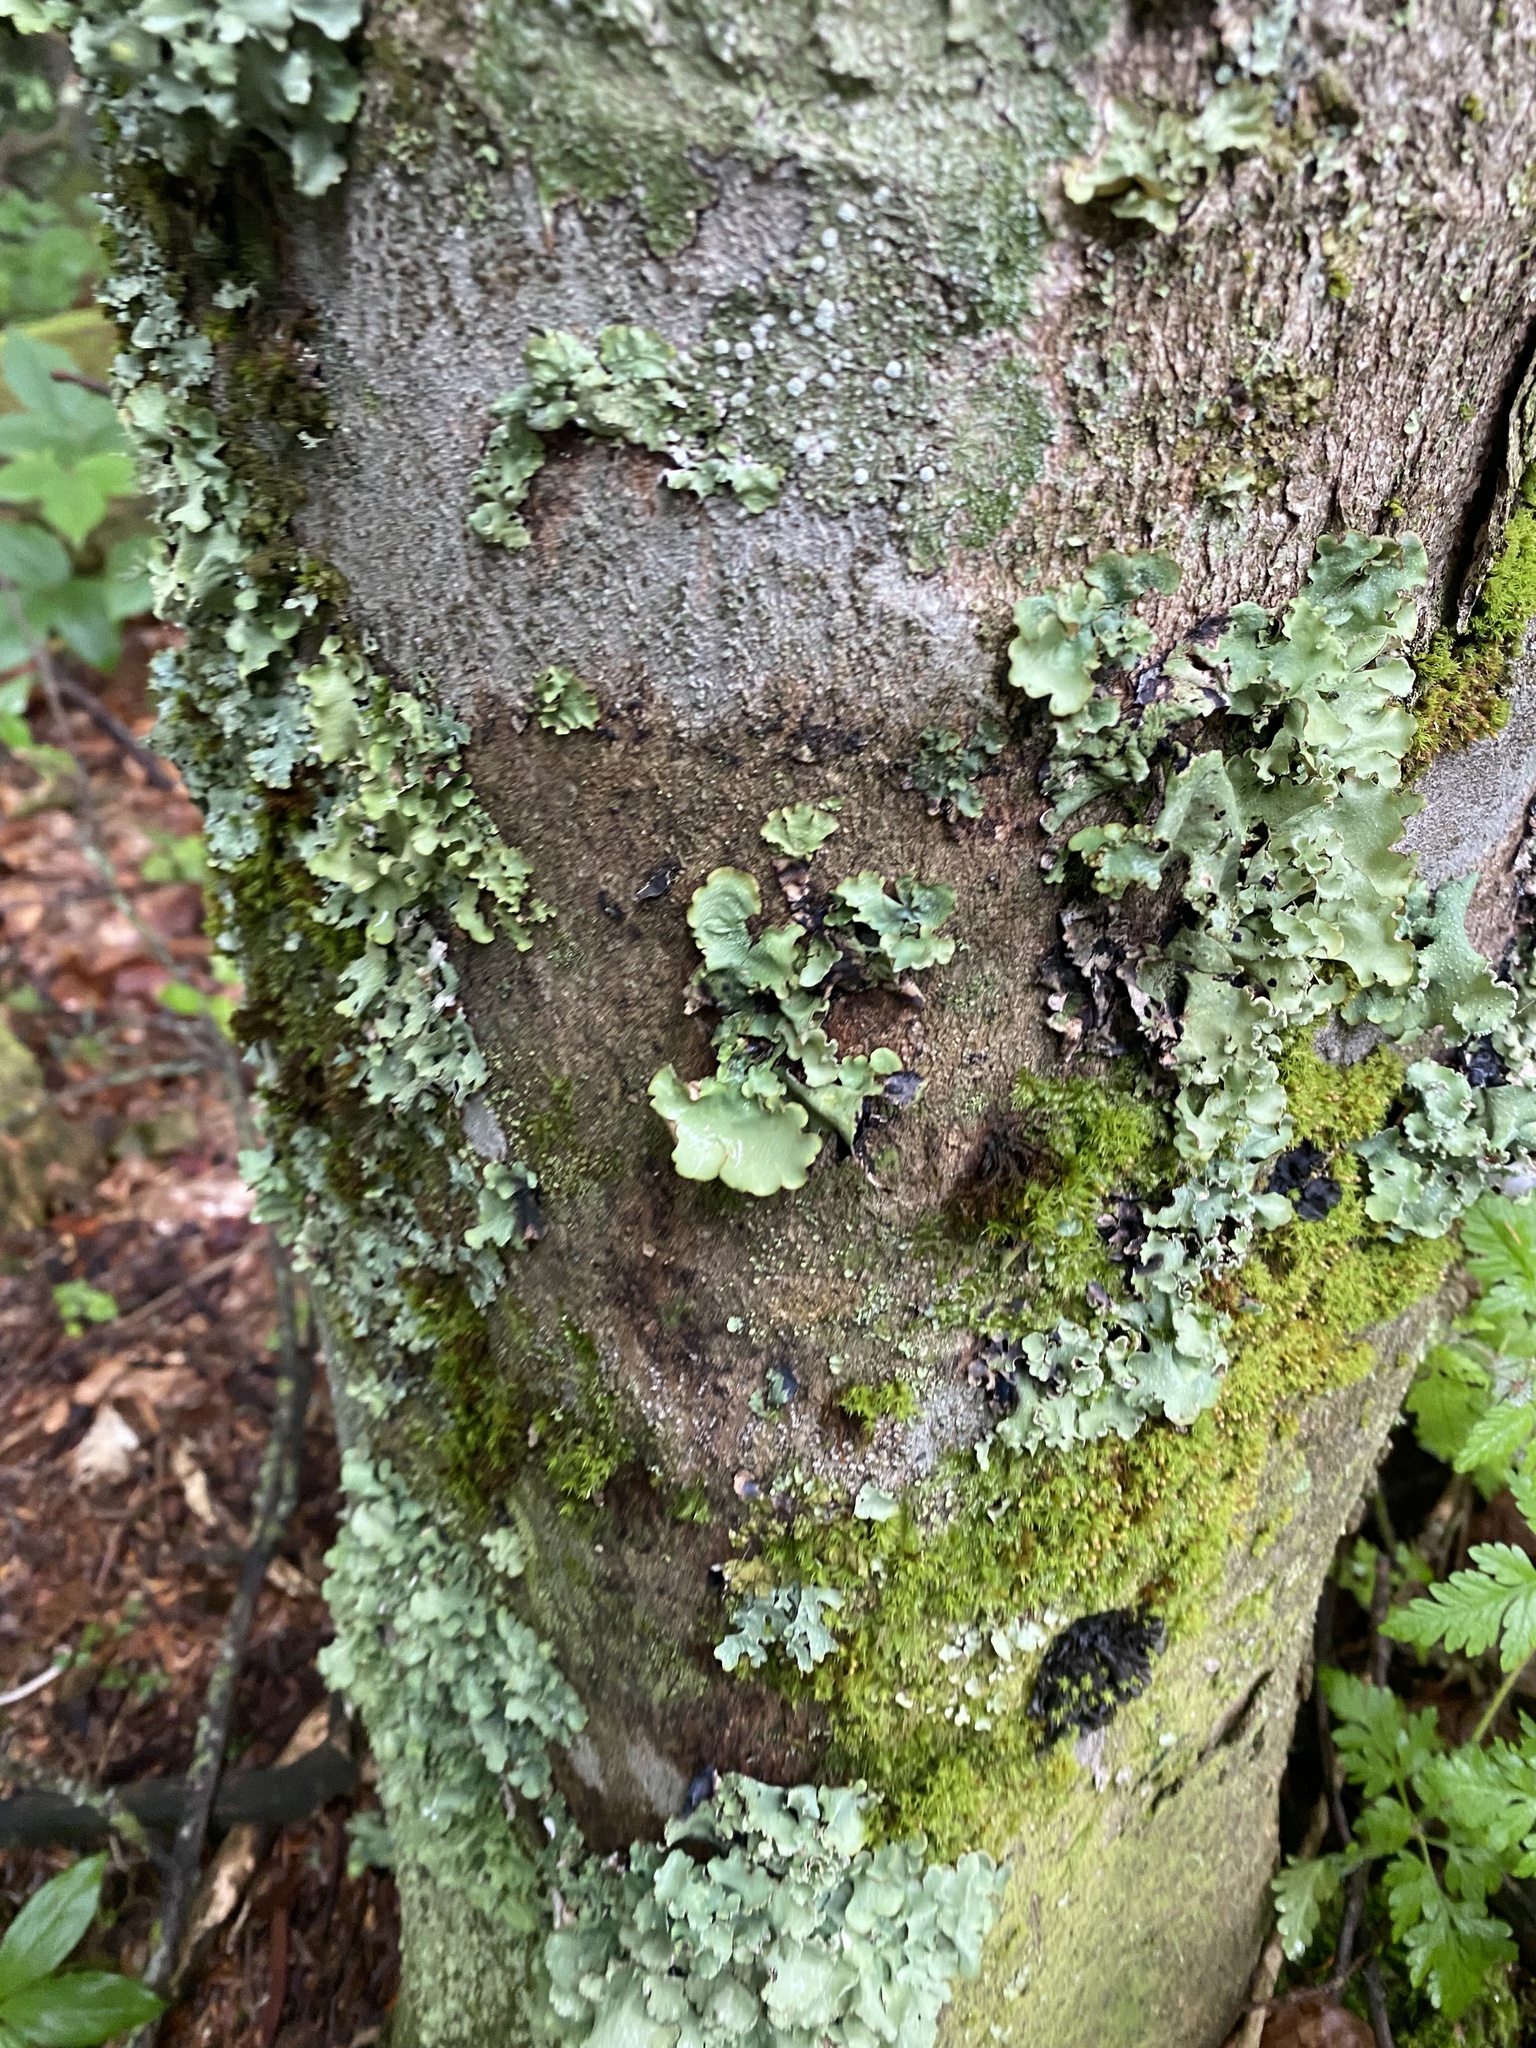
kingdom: Fungi
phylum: Ascomycota
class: Lecanoromycetes
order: Lecanorales
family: Parmeliaceae
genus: Cetrelia
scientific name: Cetrelia
